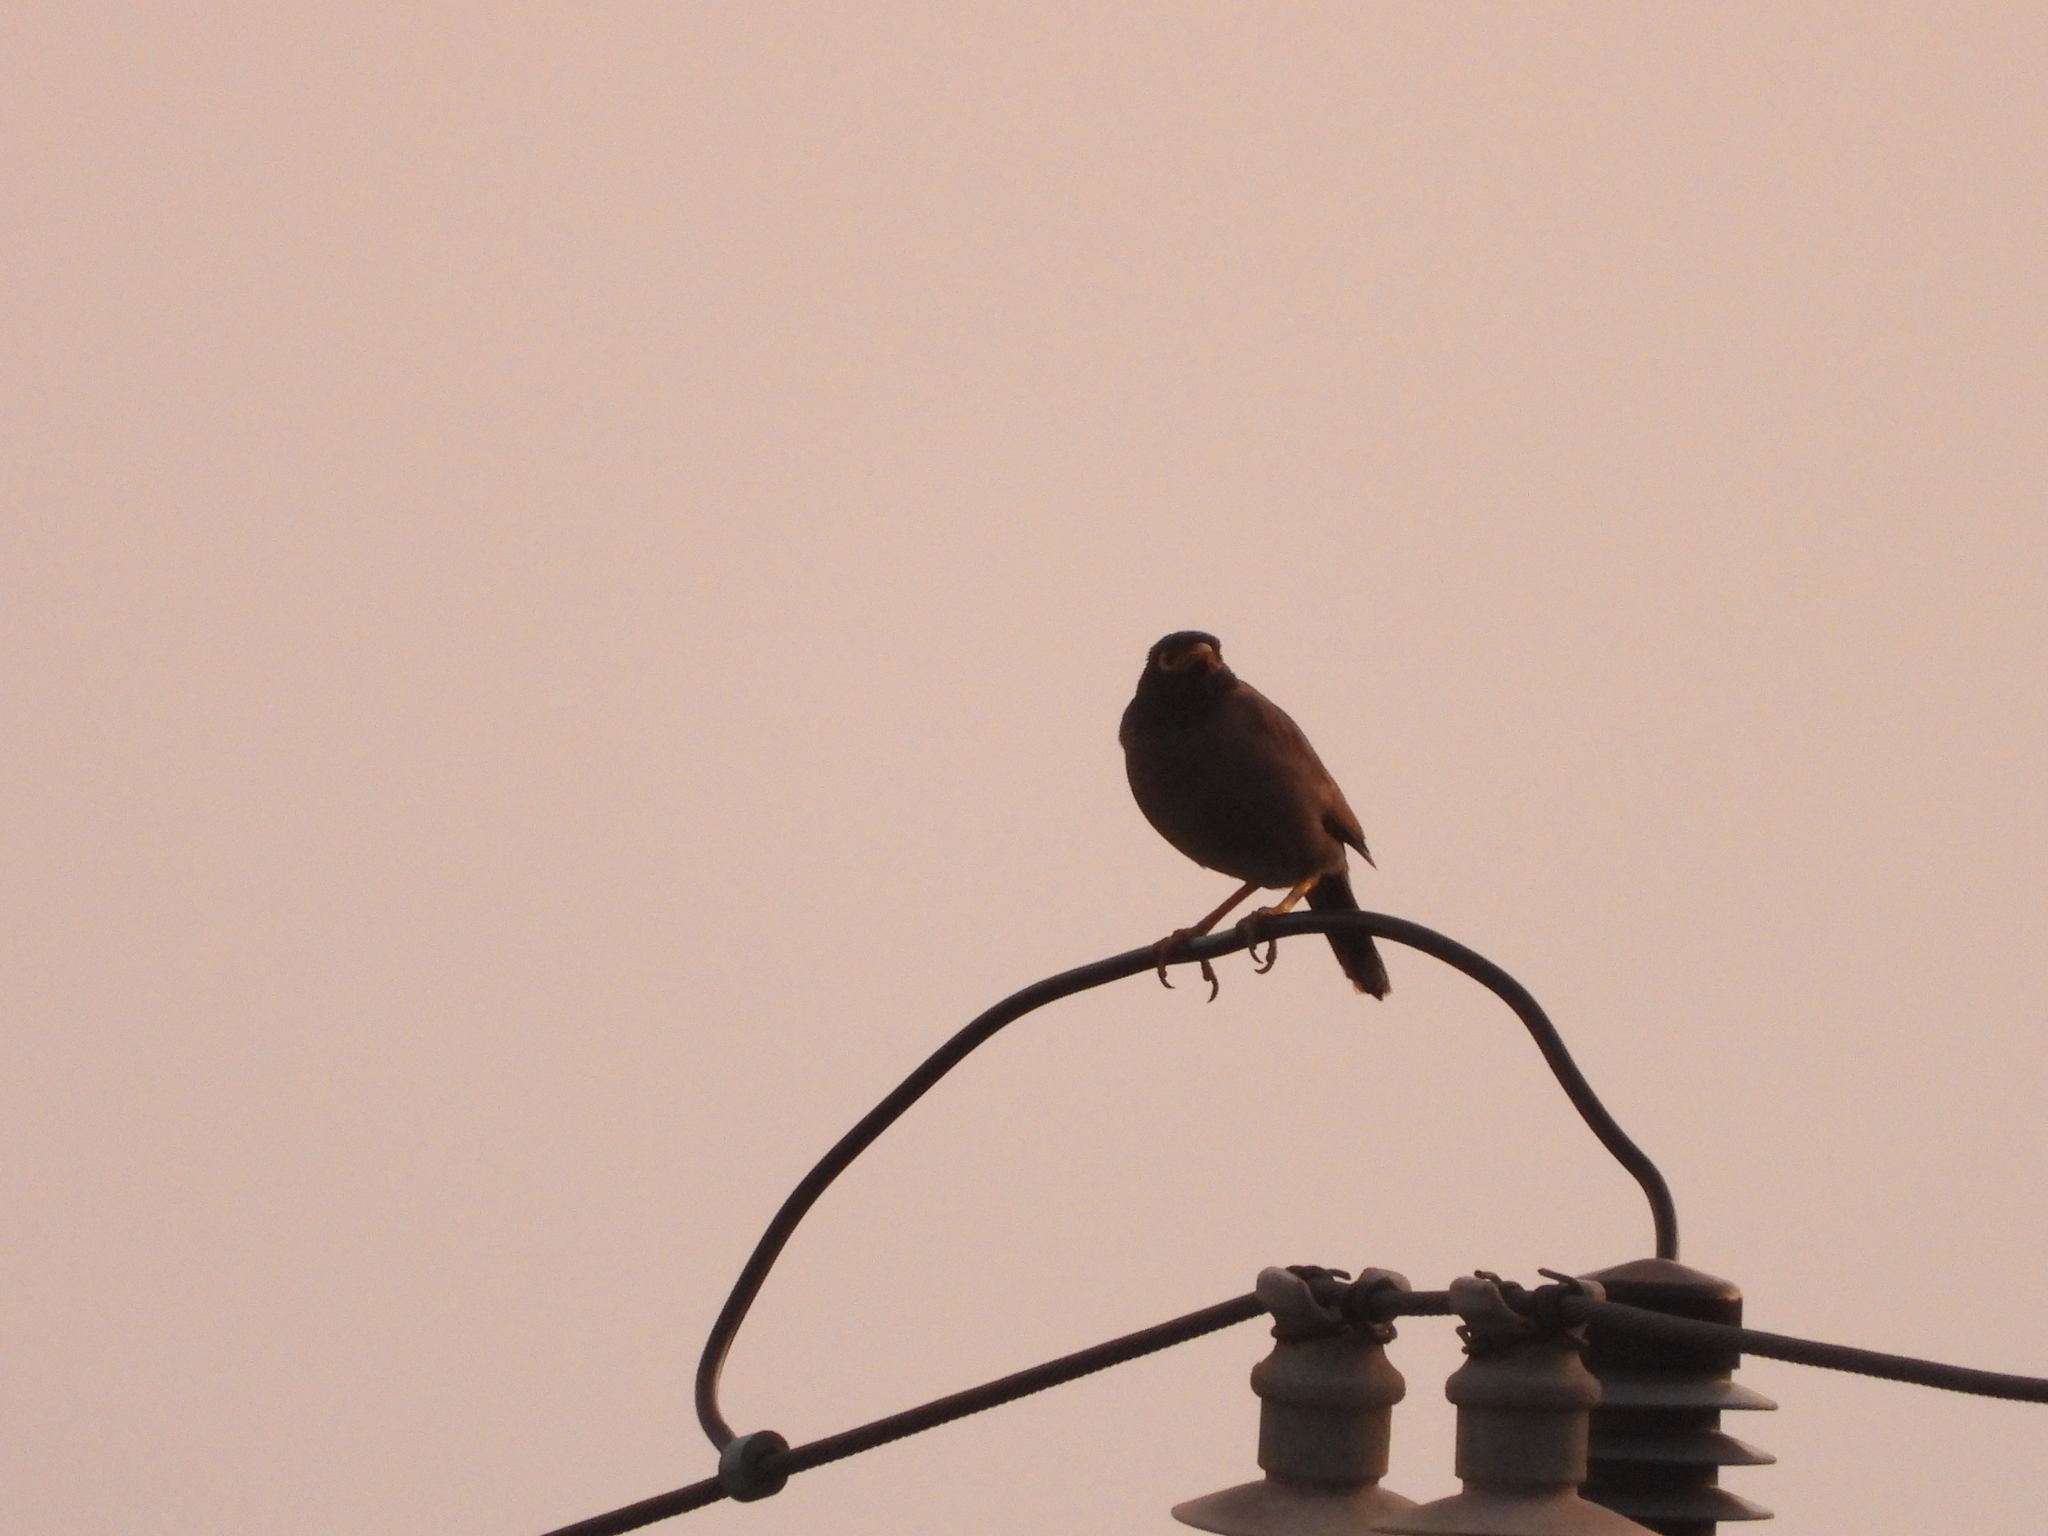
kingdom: Animalia
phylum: Chordata
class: Aves
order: Passeriformes
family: Sturnidae
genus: Acridotheres
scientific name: Acridotheres tristis
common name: Common myna
